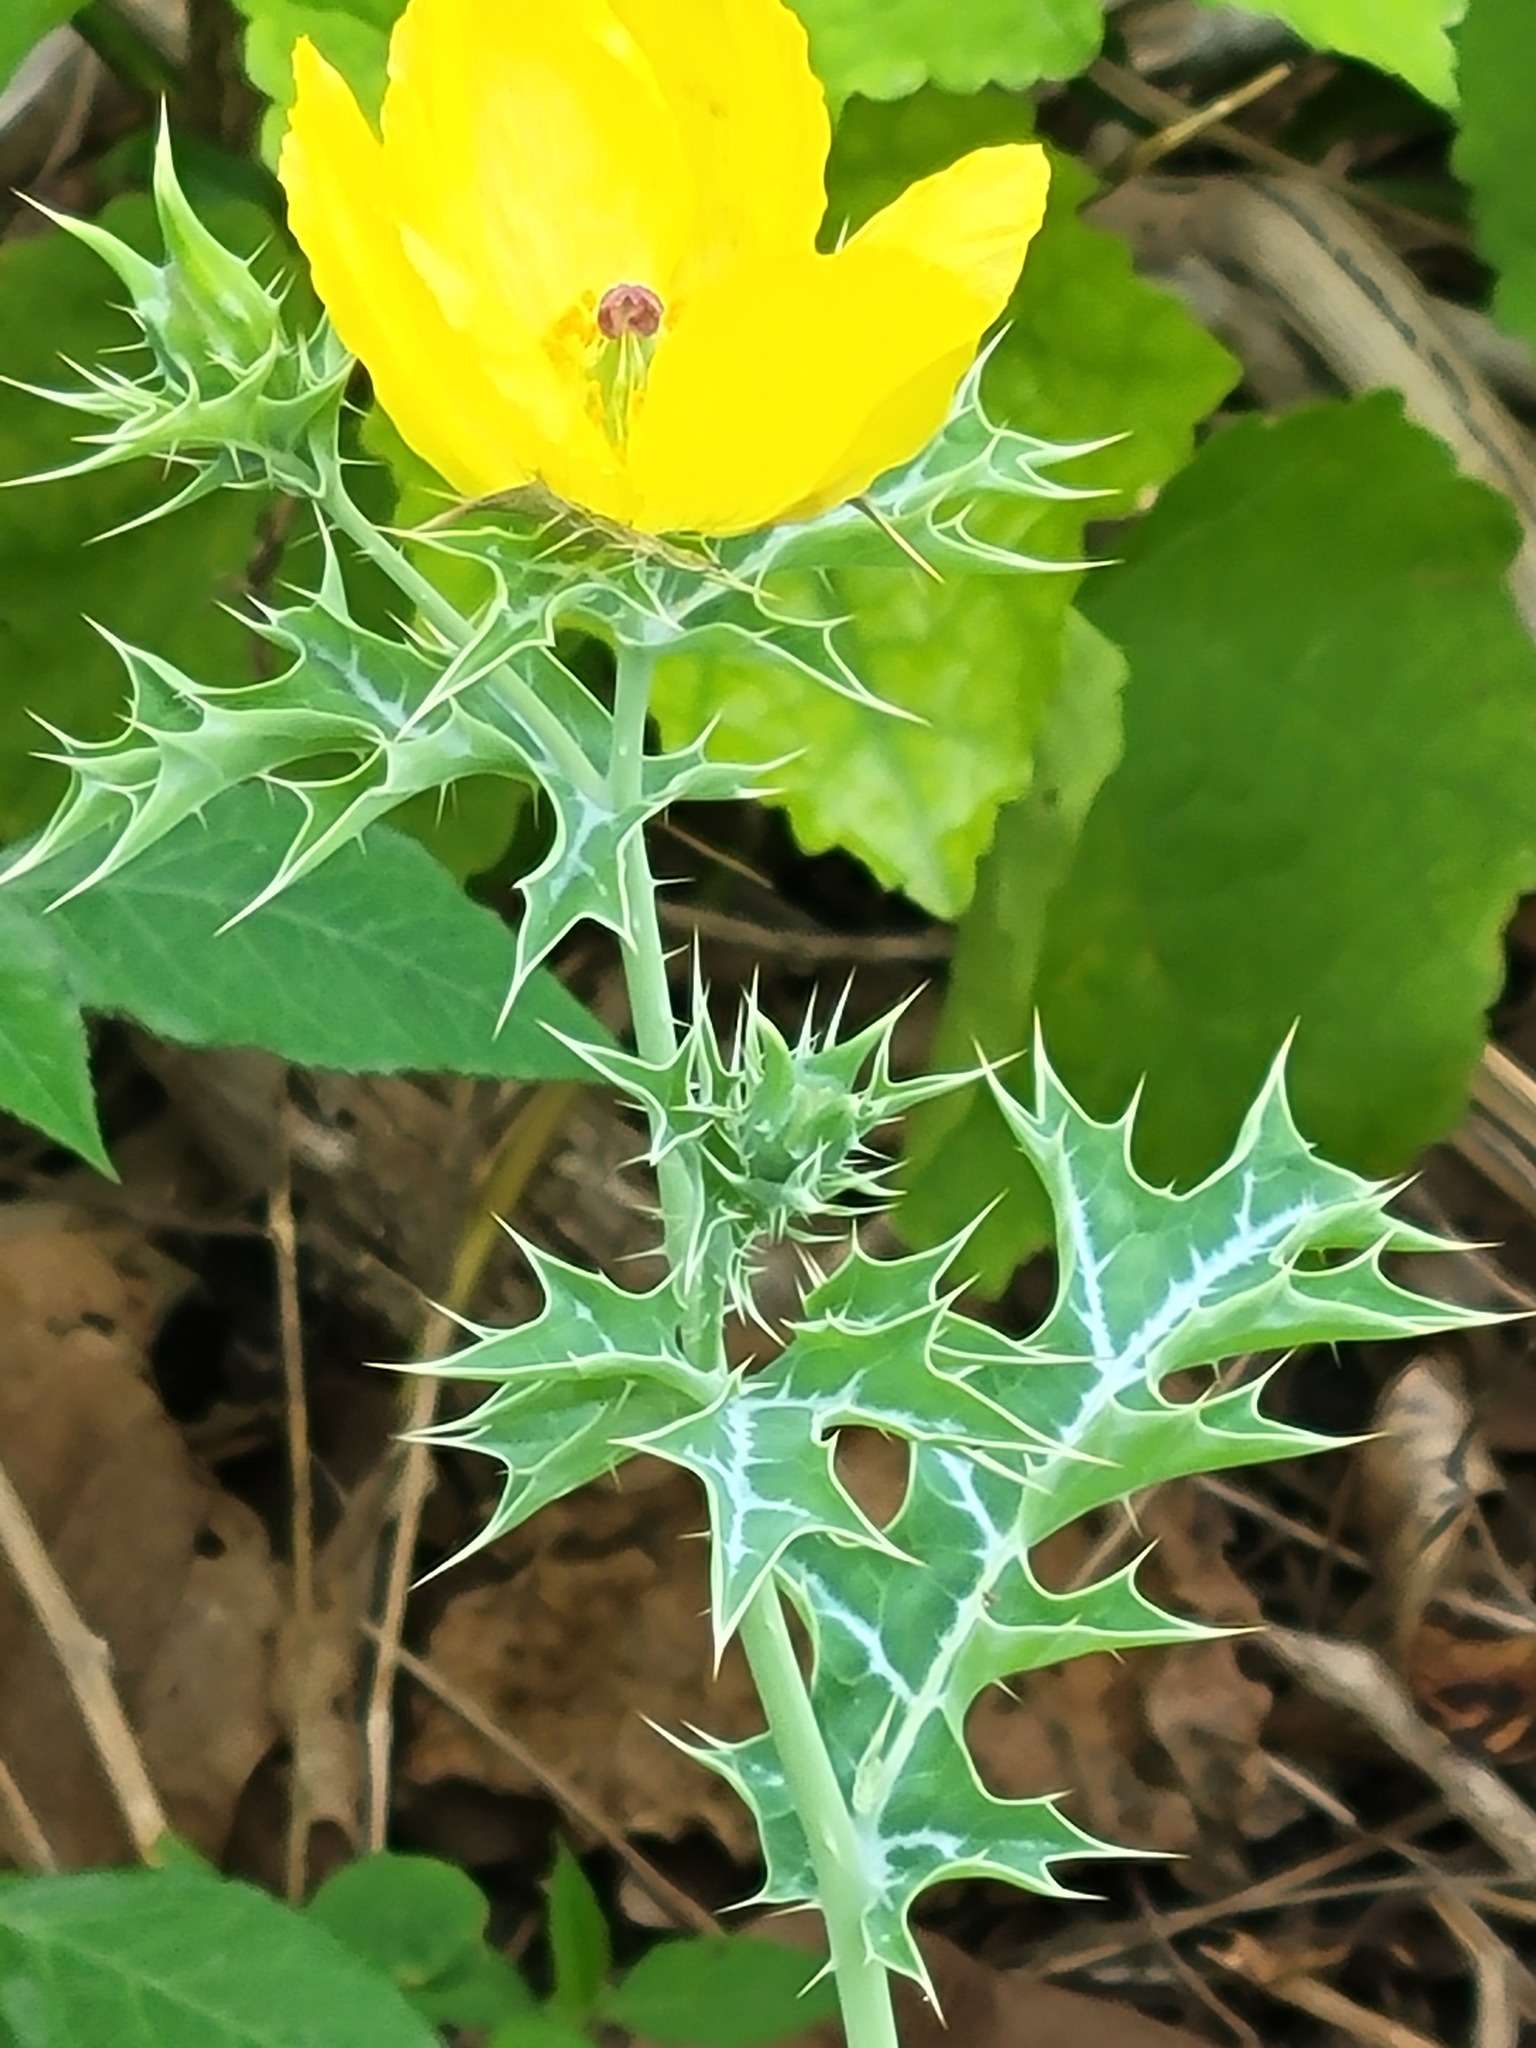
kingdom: Plantae
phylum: Tracheophyta
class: Magnoliopsida
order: Ranunculales
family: Papaveraceae
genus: Argemone
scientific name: Argemone mexicana
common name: Mexican poppy
